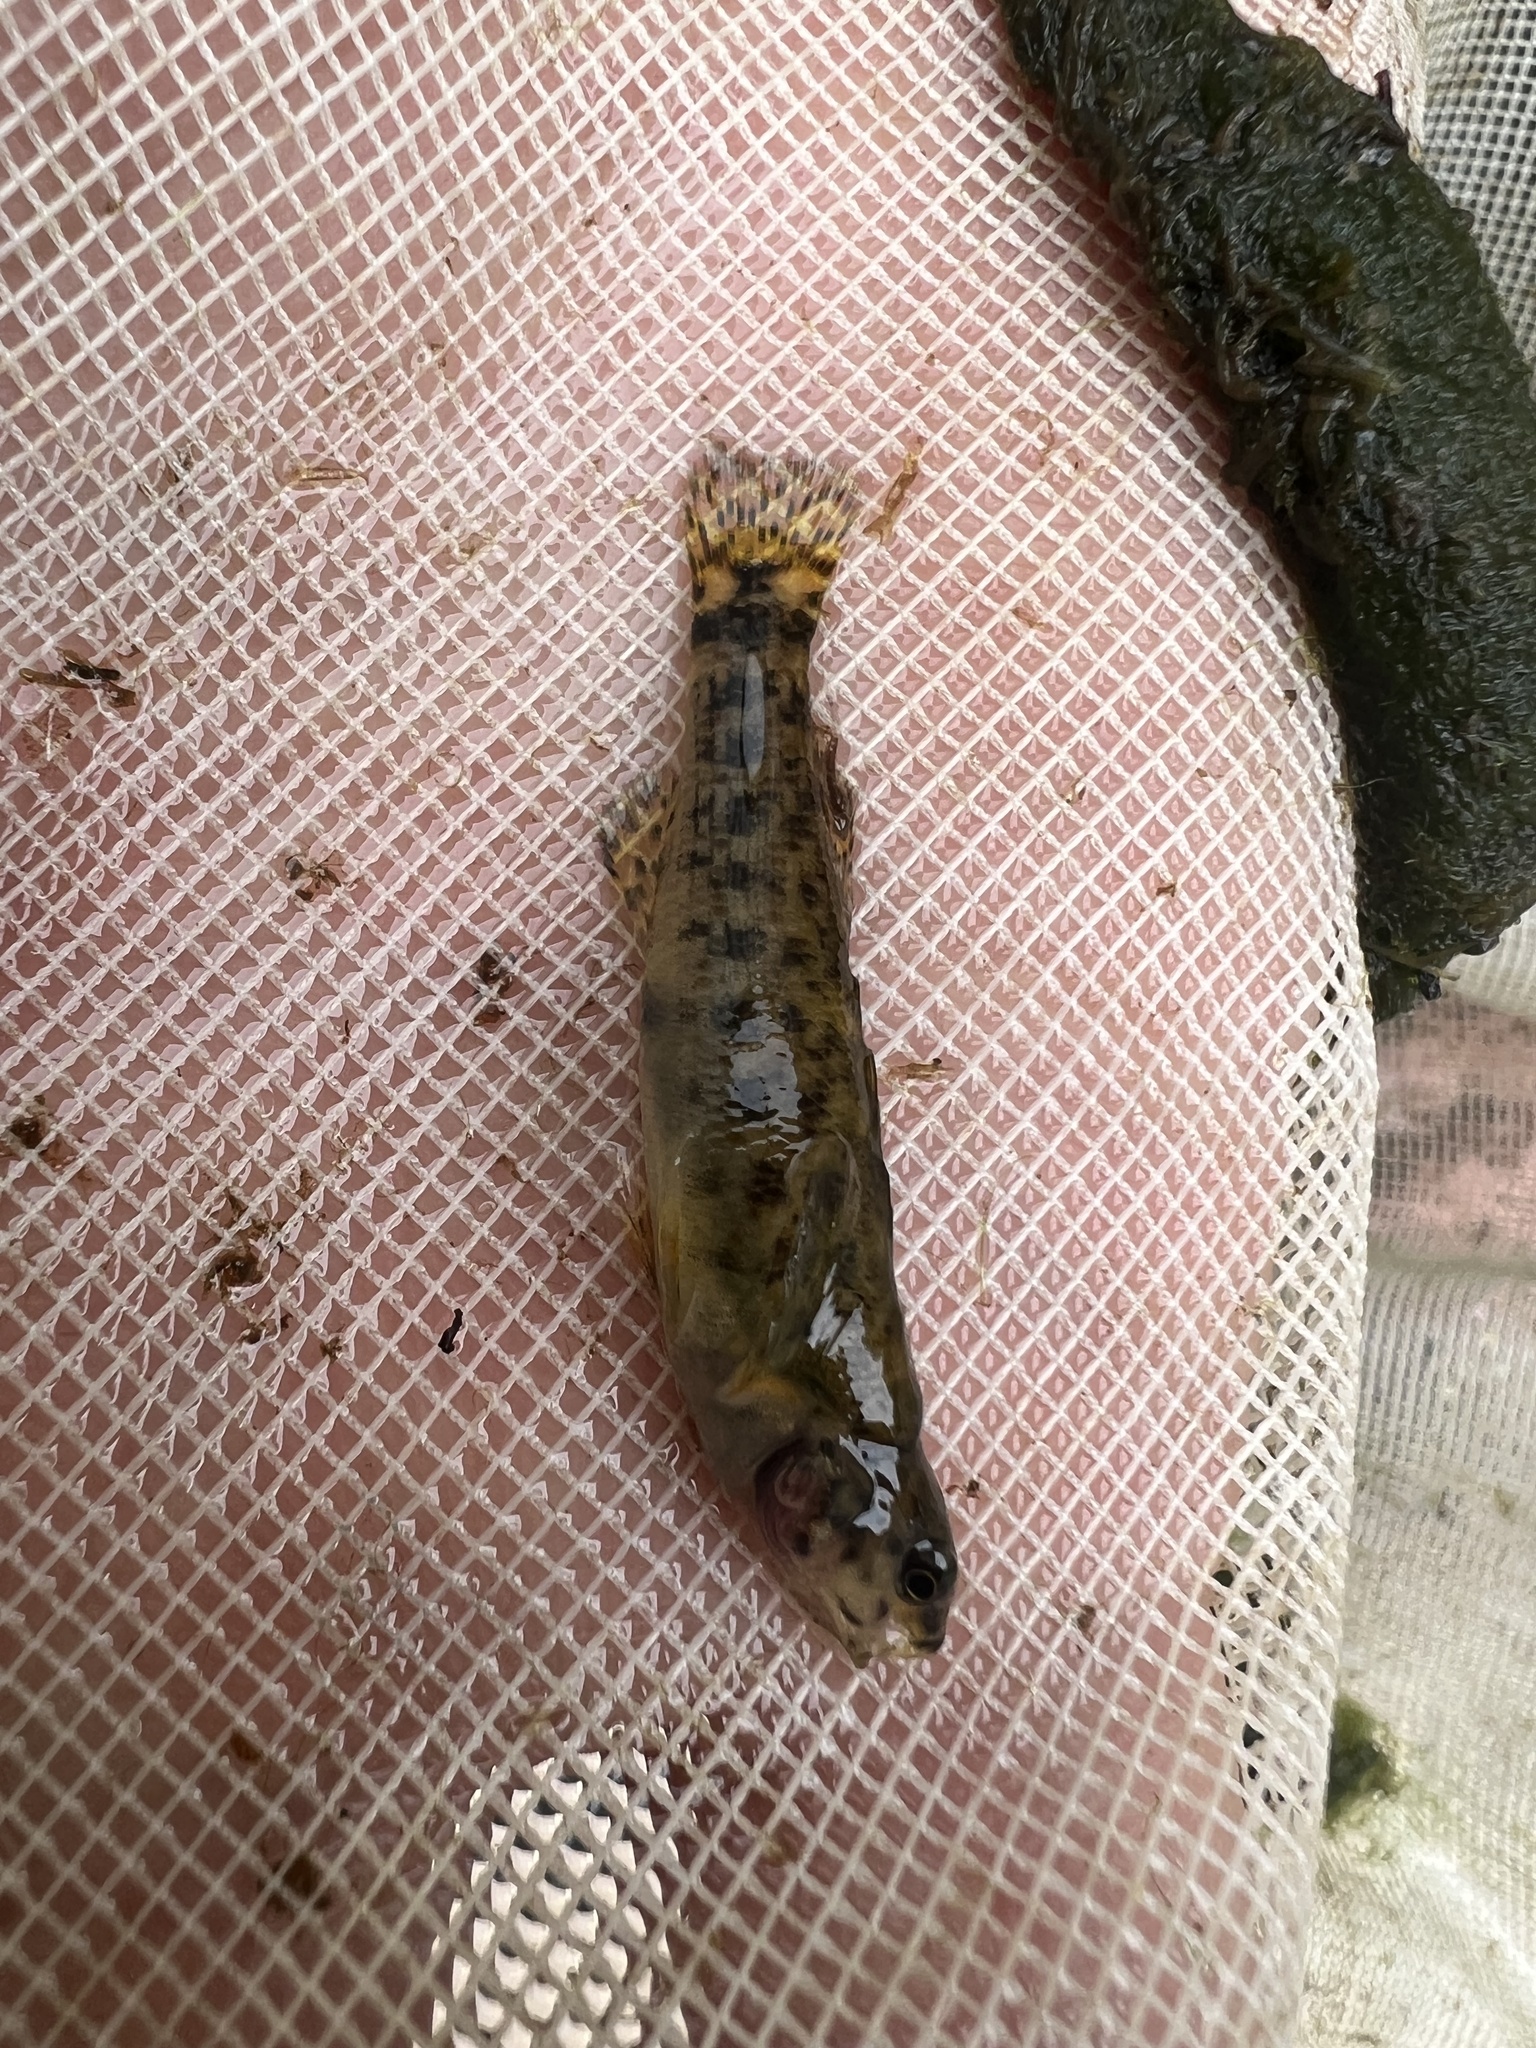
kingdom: Animalia
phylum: Chordata
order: Perciformes
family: Percidae
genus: Etheostoma
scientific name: Etheostoma rufilineatum
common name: Redline darter
